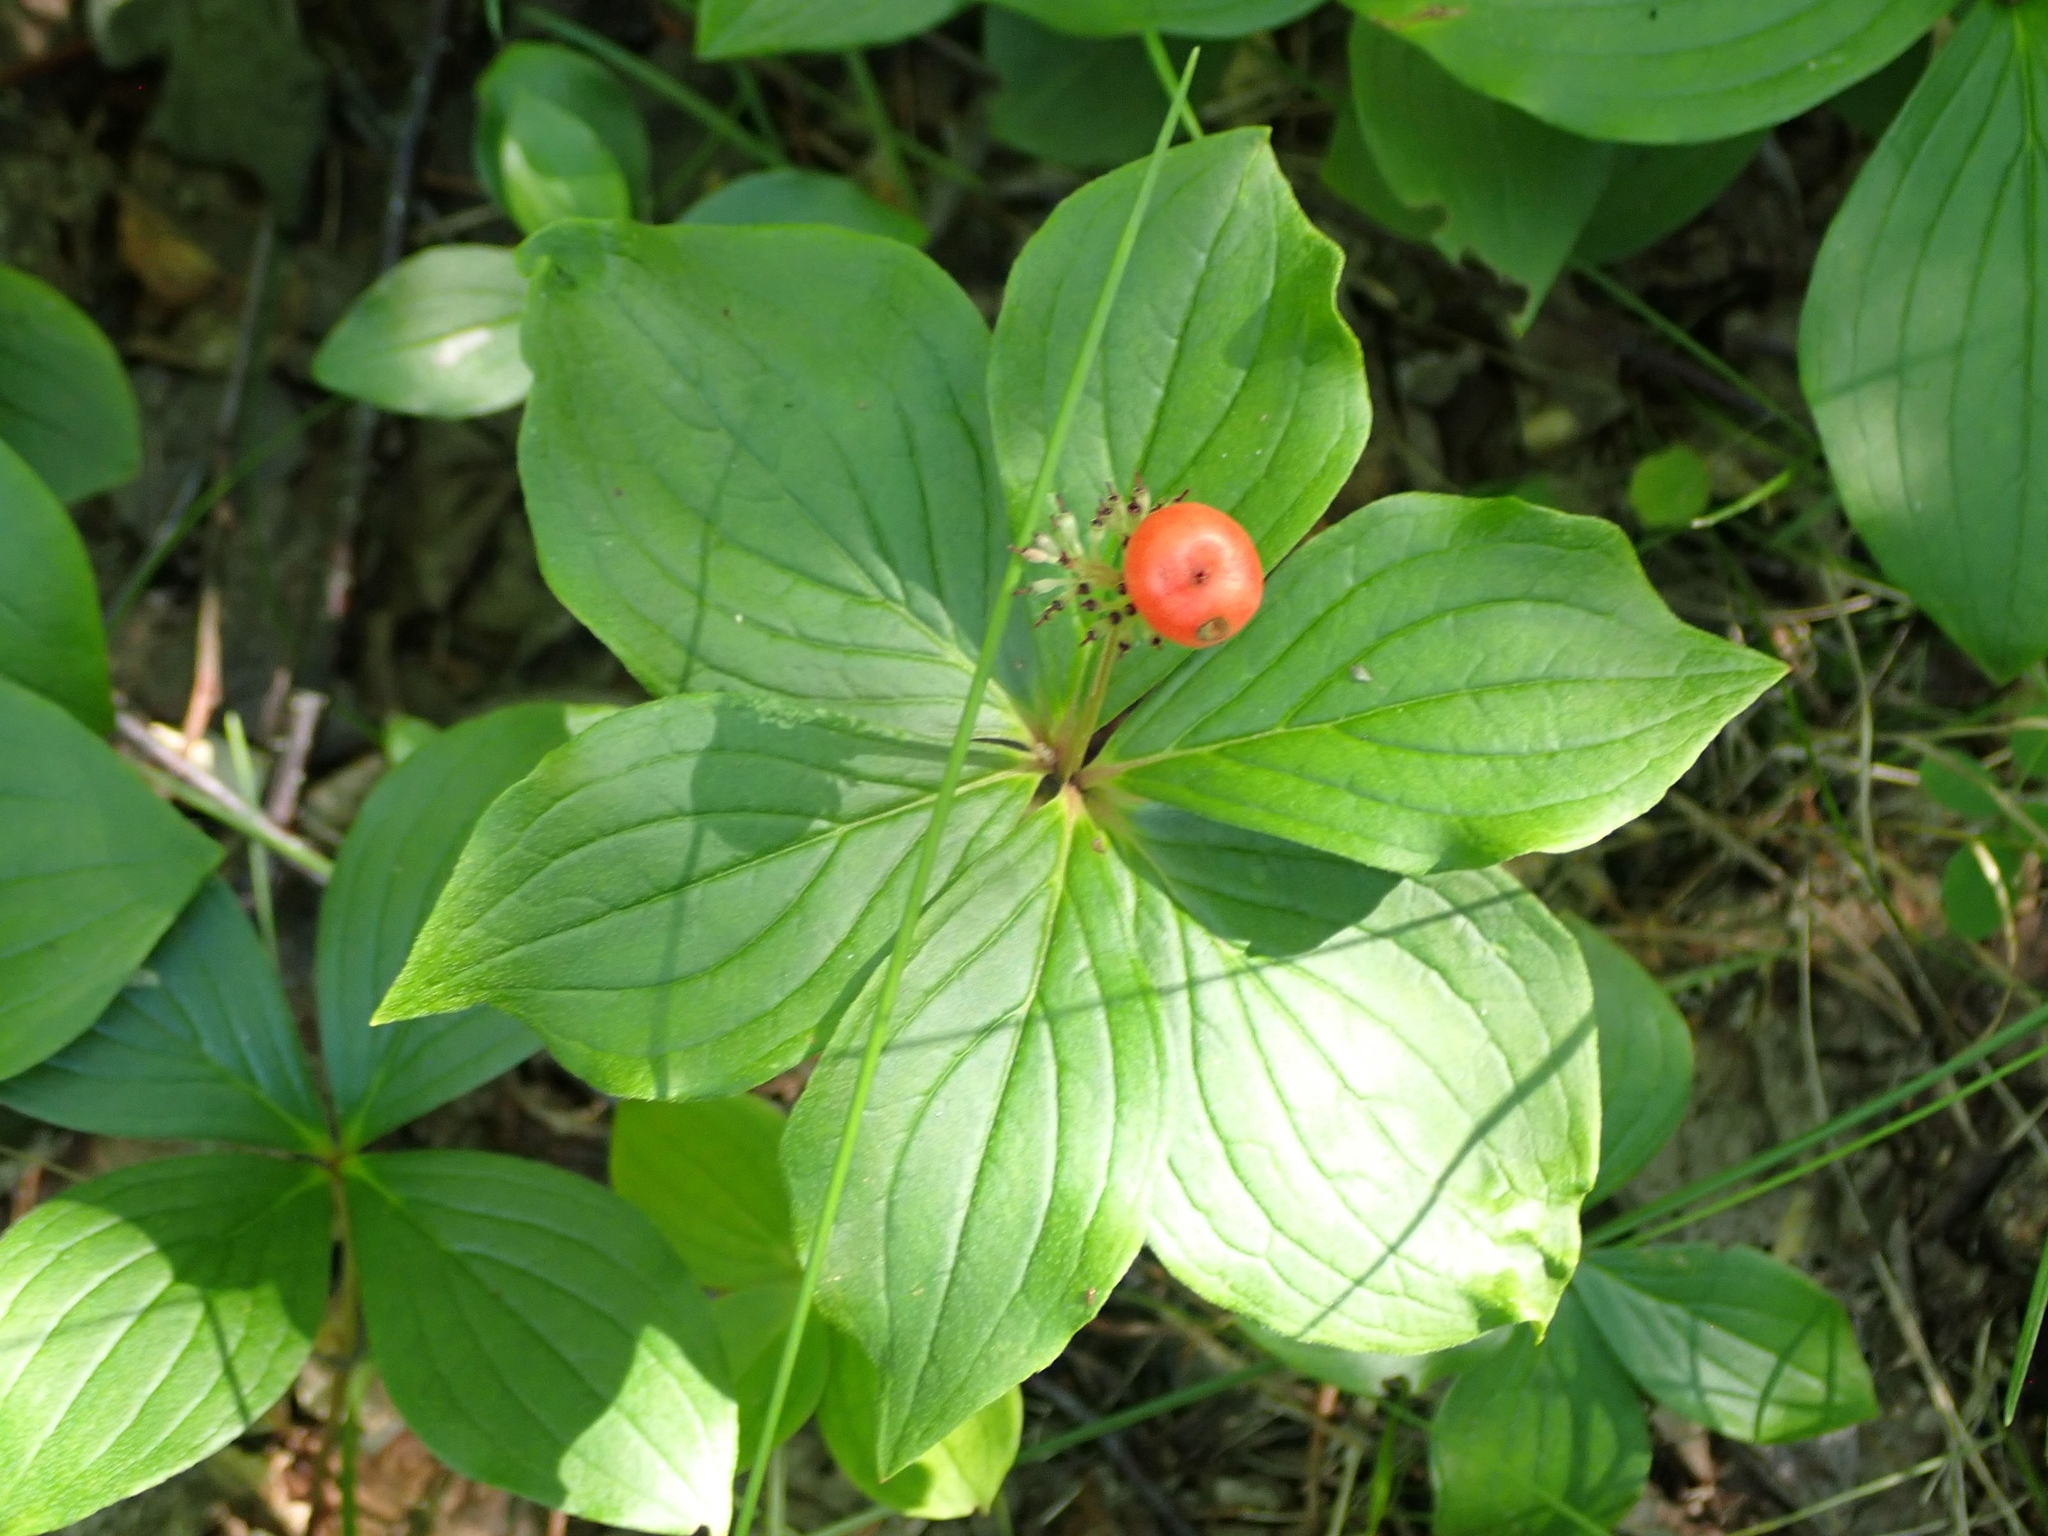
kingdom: Plantae
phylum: Tracheophyta
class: Magnoliopsida
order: Cornales
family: Cornaceae
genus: Cornus
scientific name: Cornus canadensis
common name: Creeping dogwood
